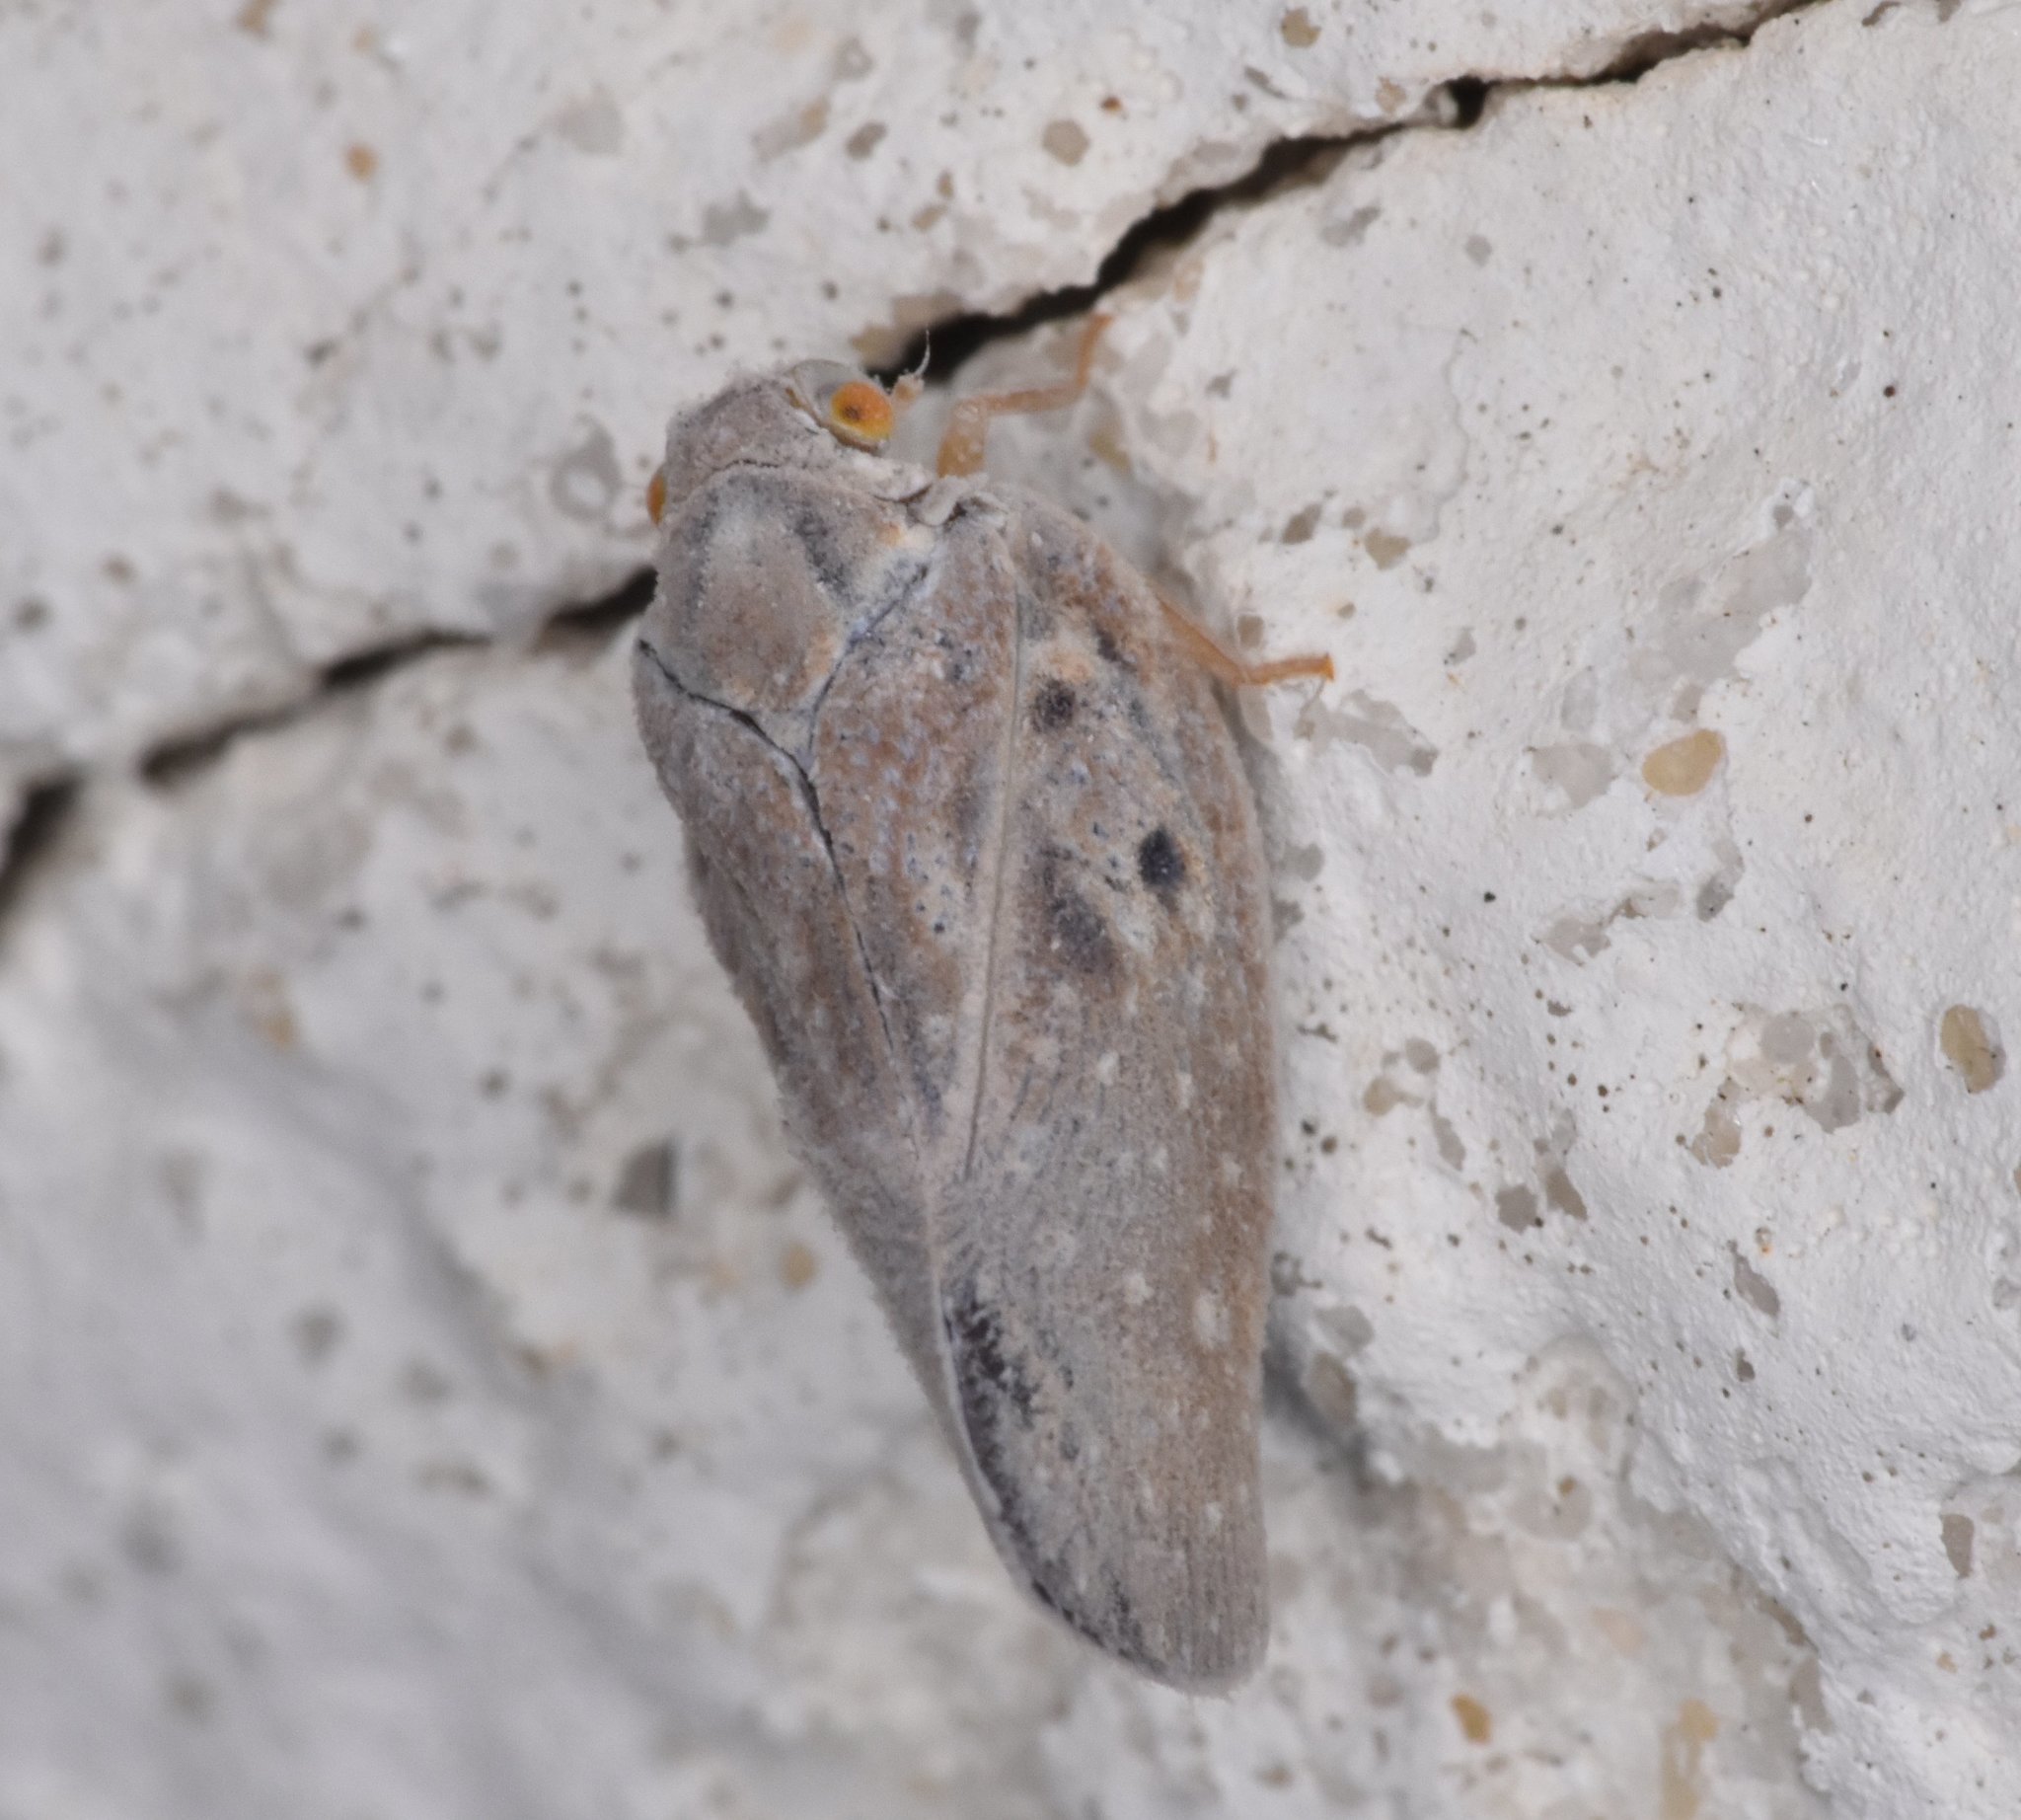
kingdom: Animalia
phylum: Arthropoda
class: Insecta
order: Hemiptera
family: Flatidae
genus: Metcalfa
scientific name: Metcalfa pruinosa
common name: Citrus flatid planthopper
